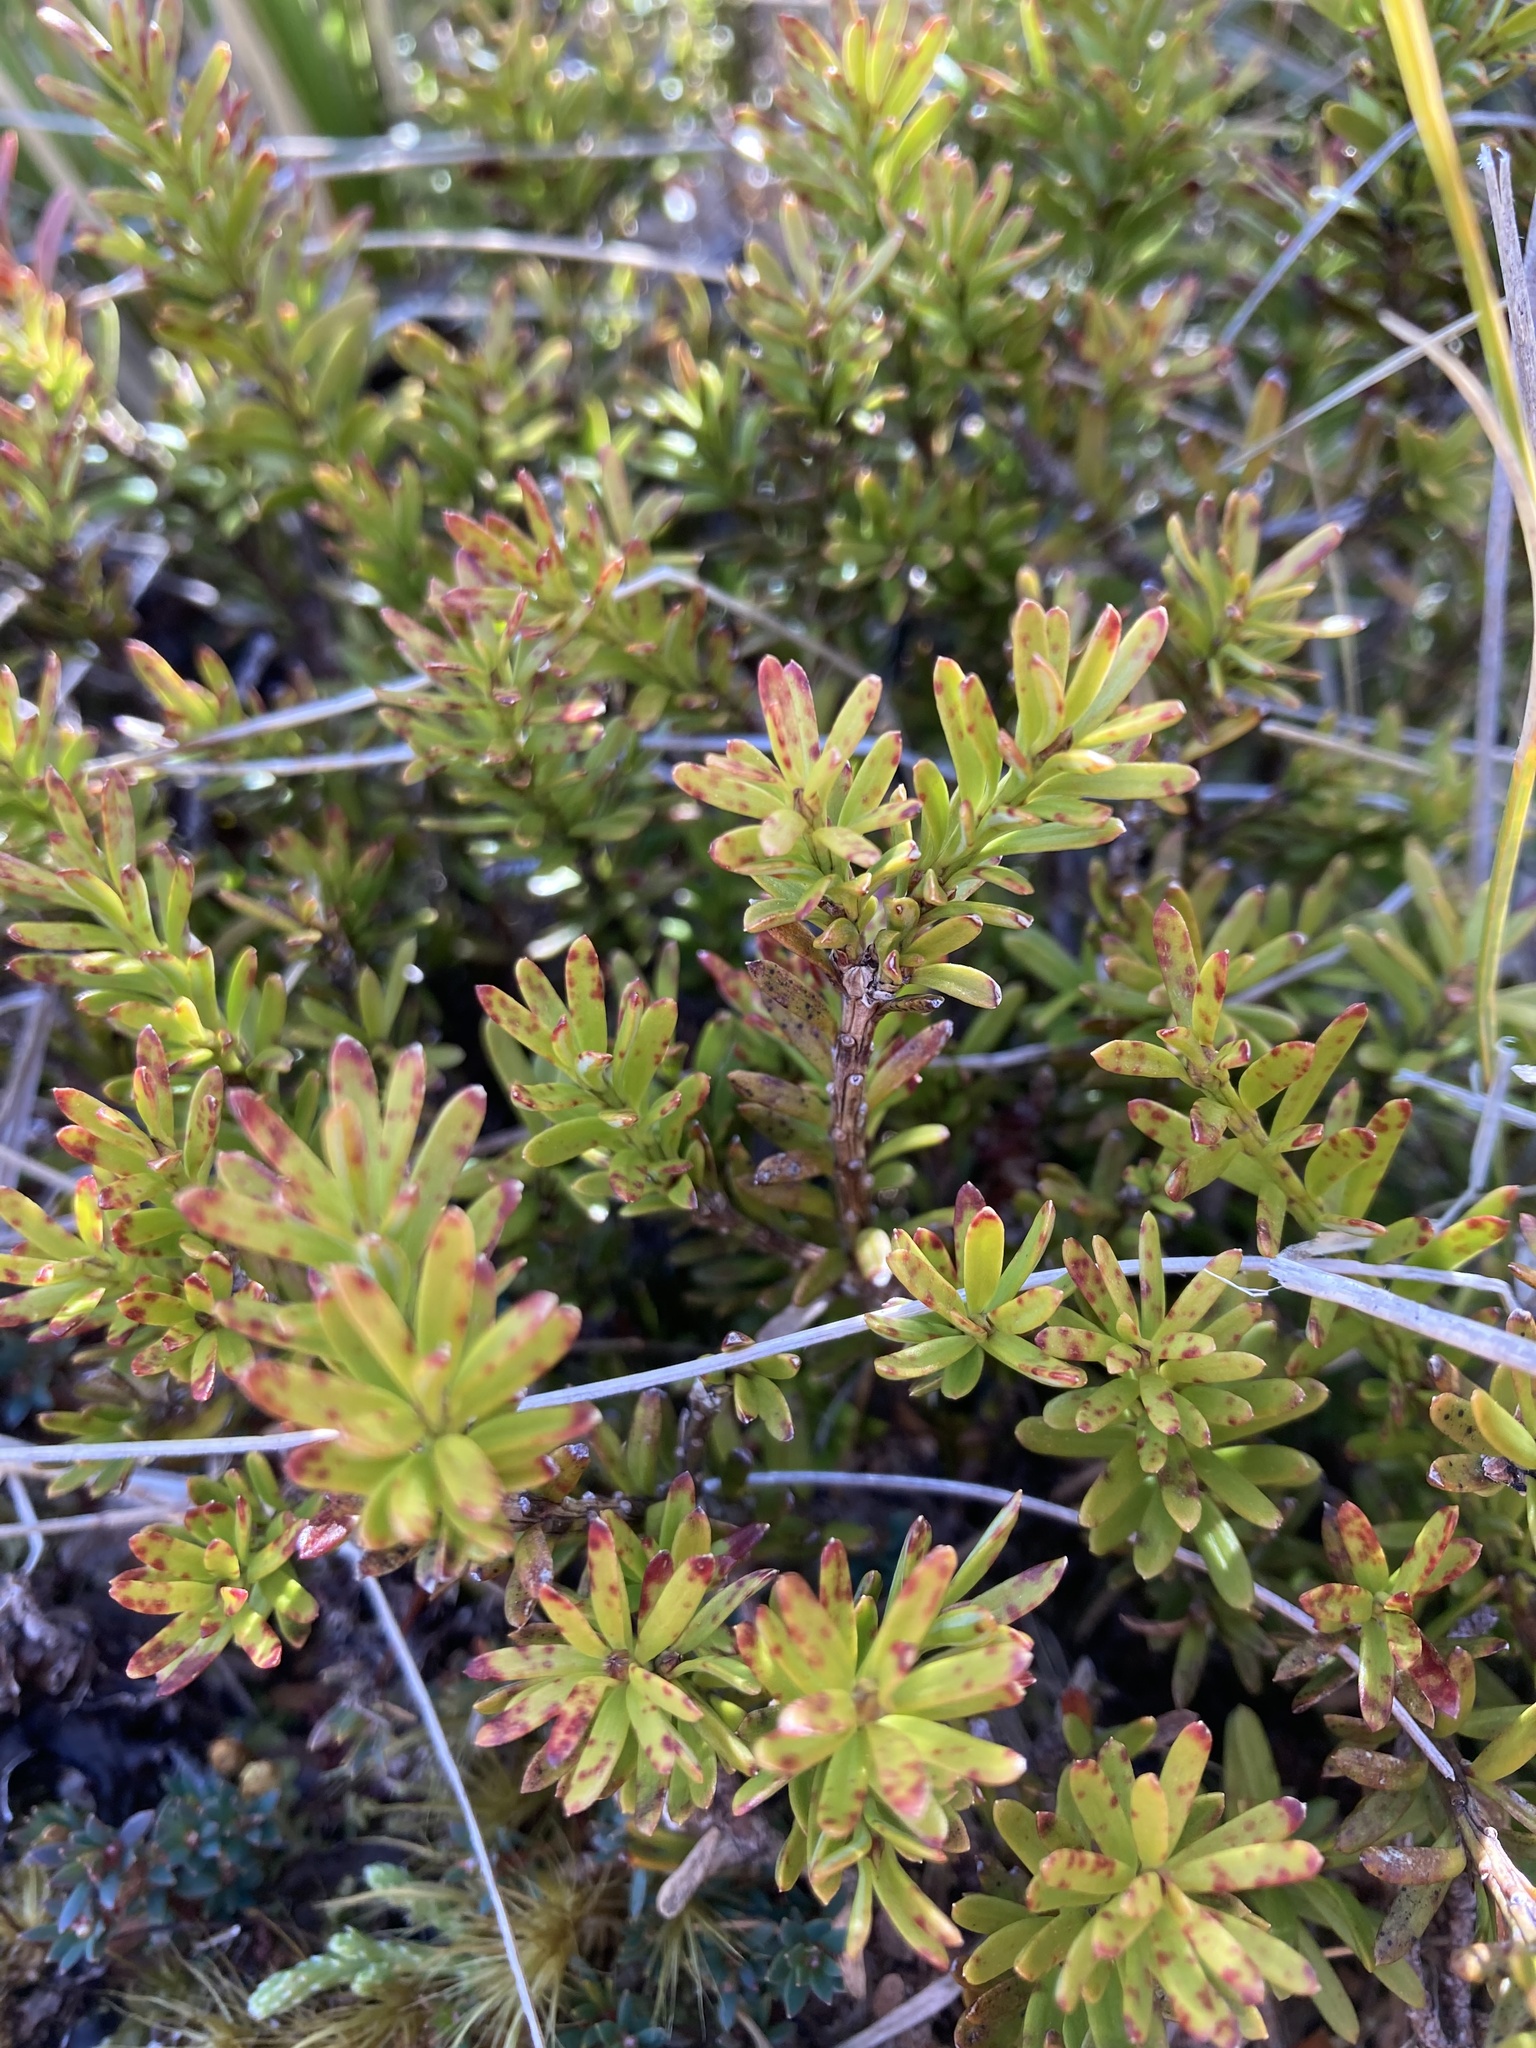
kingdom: Plantae
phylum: Tracheophyta
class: Pinopsida
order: Pinales
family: Podocarpaceae
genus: Podocarpus
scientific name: Podocarpus nivalis
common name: Alpine totara
